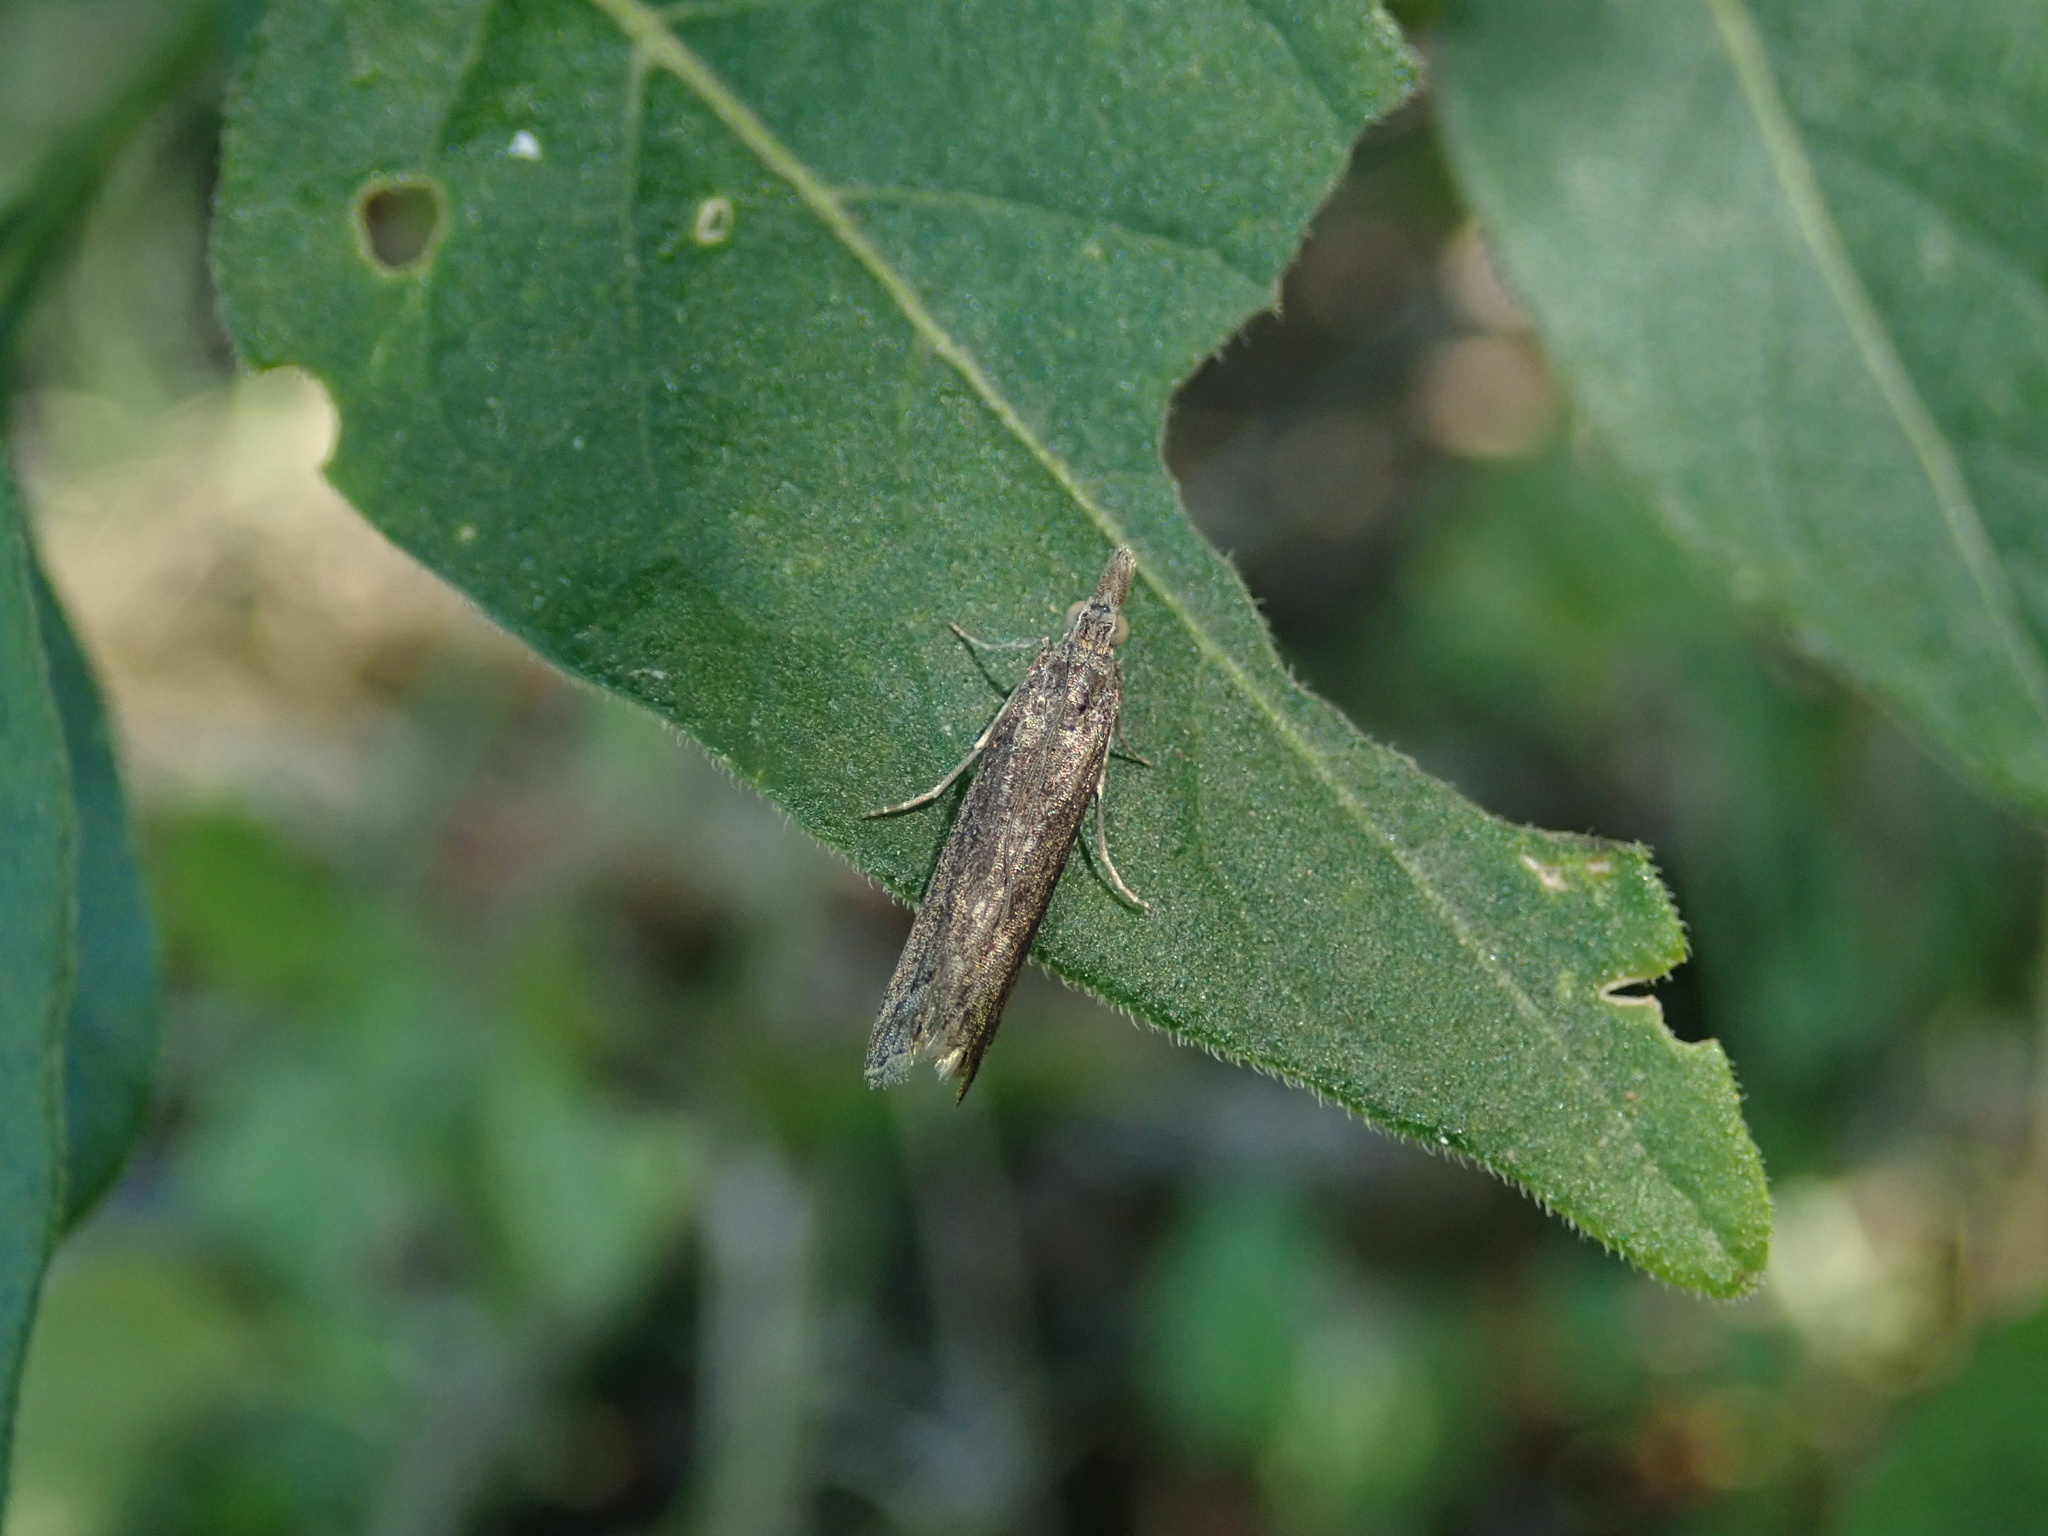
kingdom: Animalia
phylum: Arthropoda
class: Insecta
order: Lepidoptera
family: Crambidae
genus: Eudonia
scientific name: Eudonia leptalea
